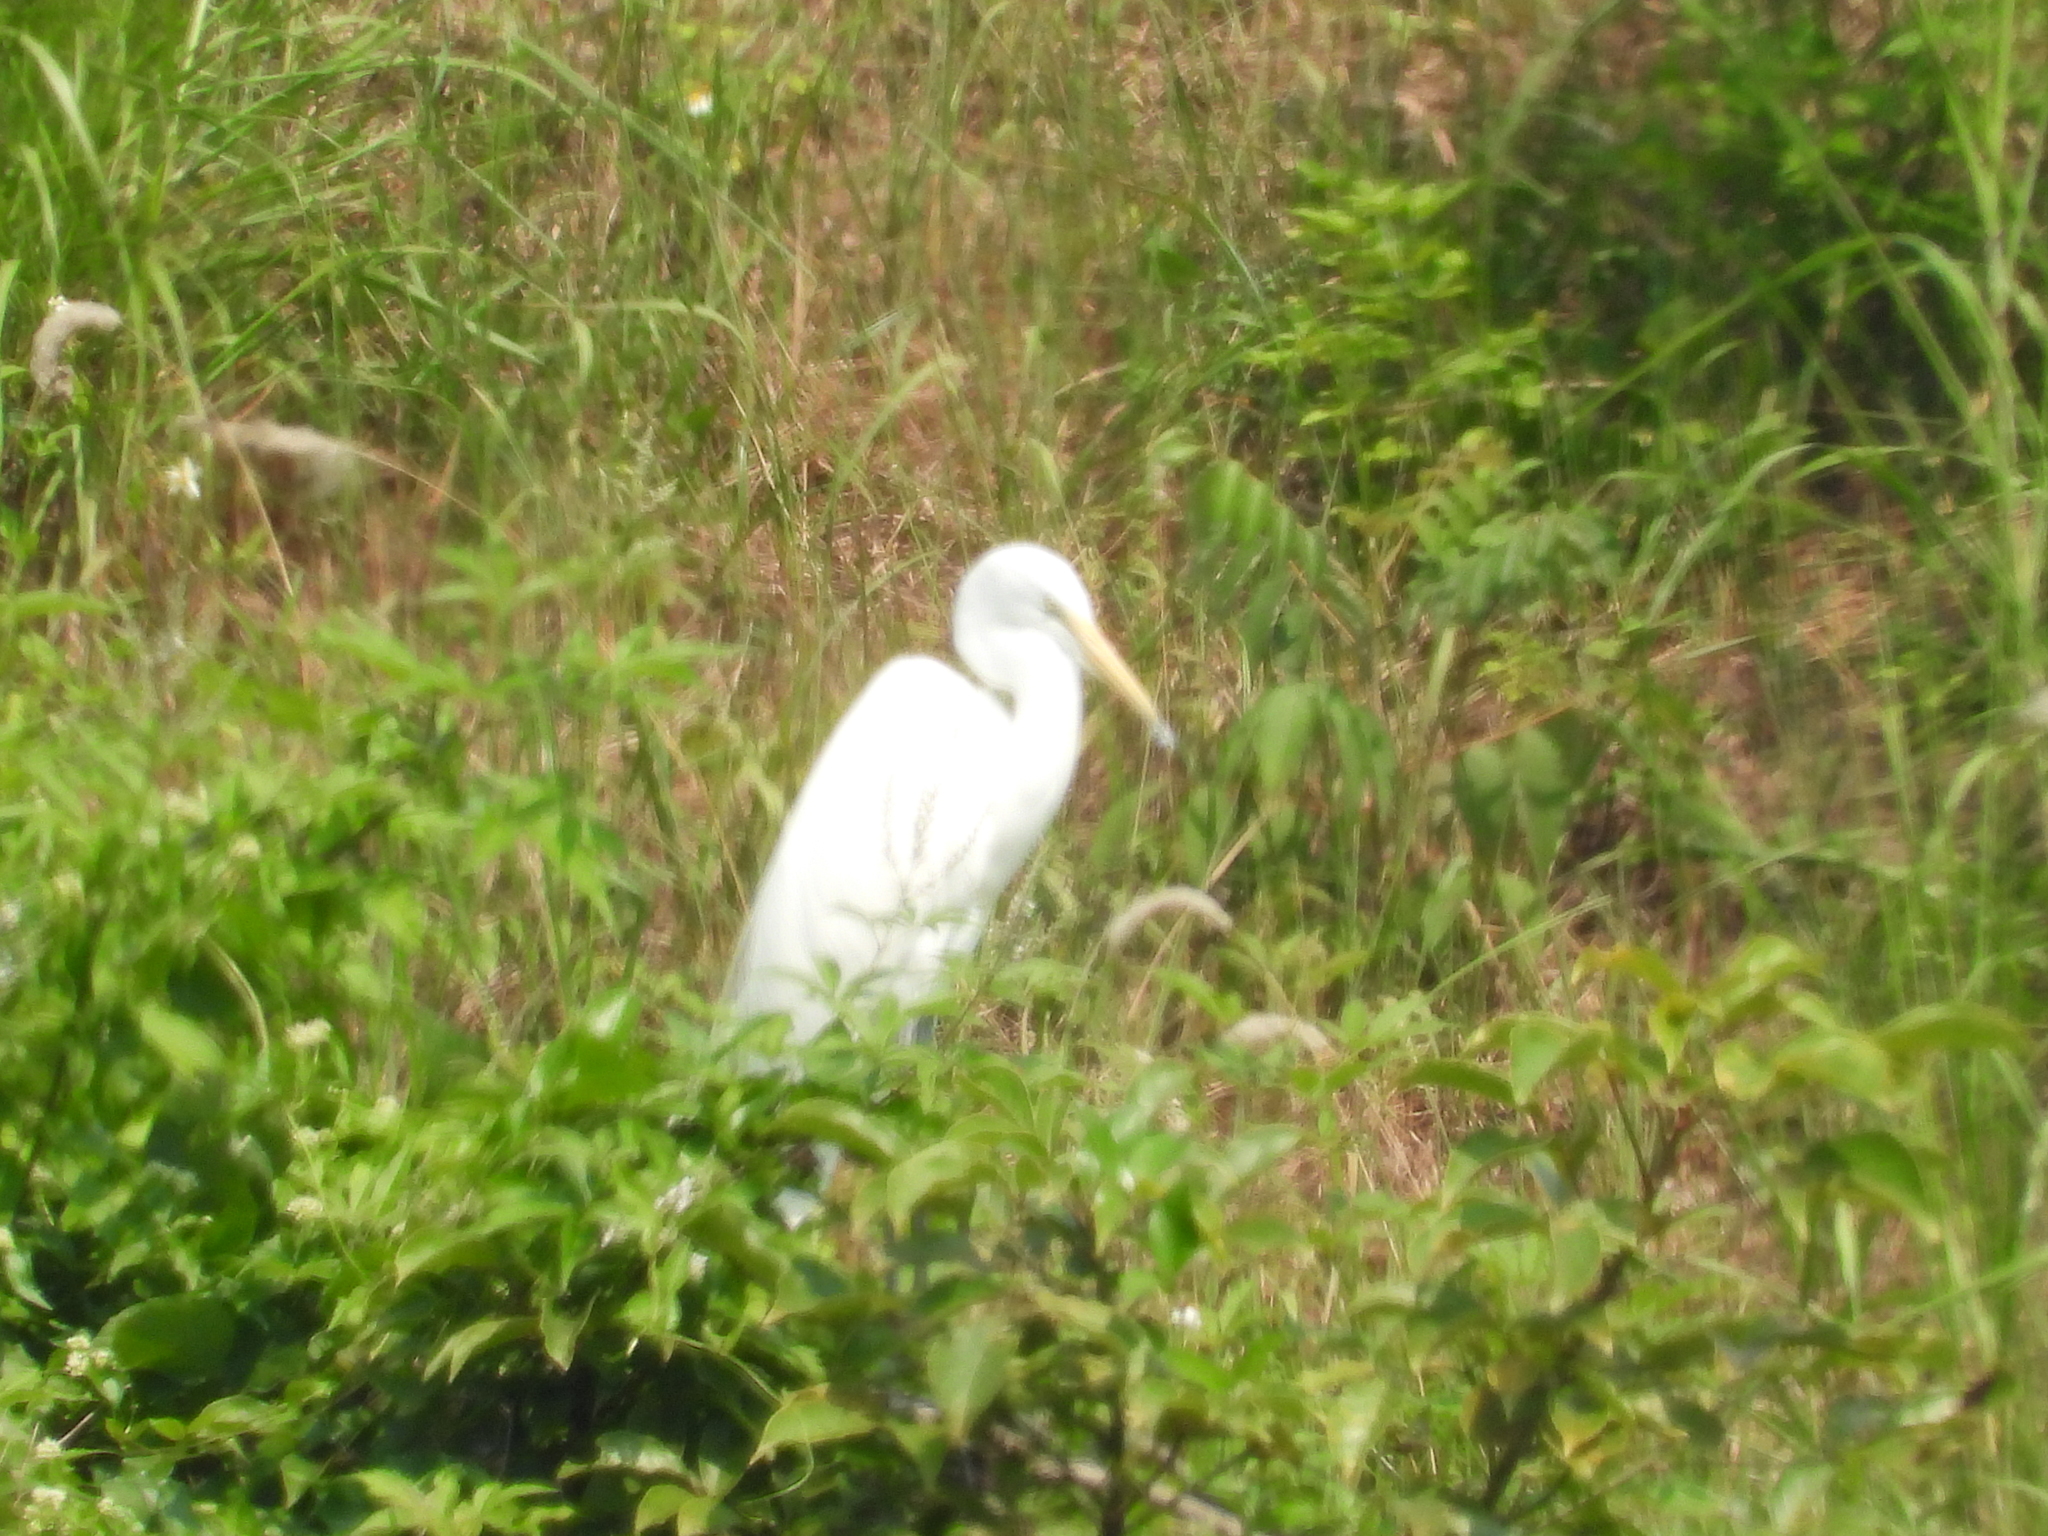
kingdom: Animalia
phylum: Chordata
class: Aves
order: Pelecaniformes
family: Ardeidae
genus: Ardea
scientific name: Ardea alba
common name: Great egret
